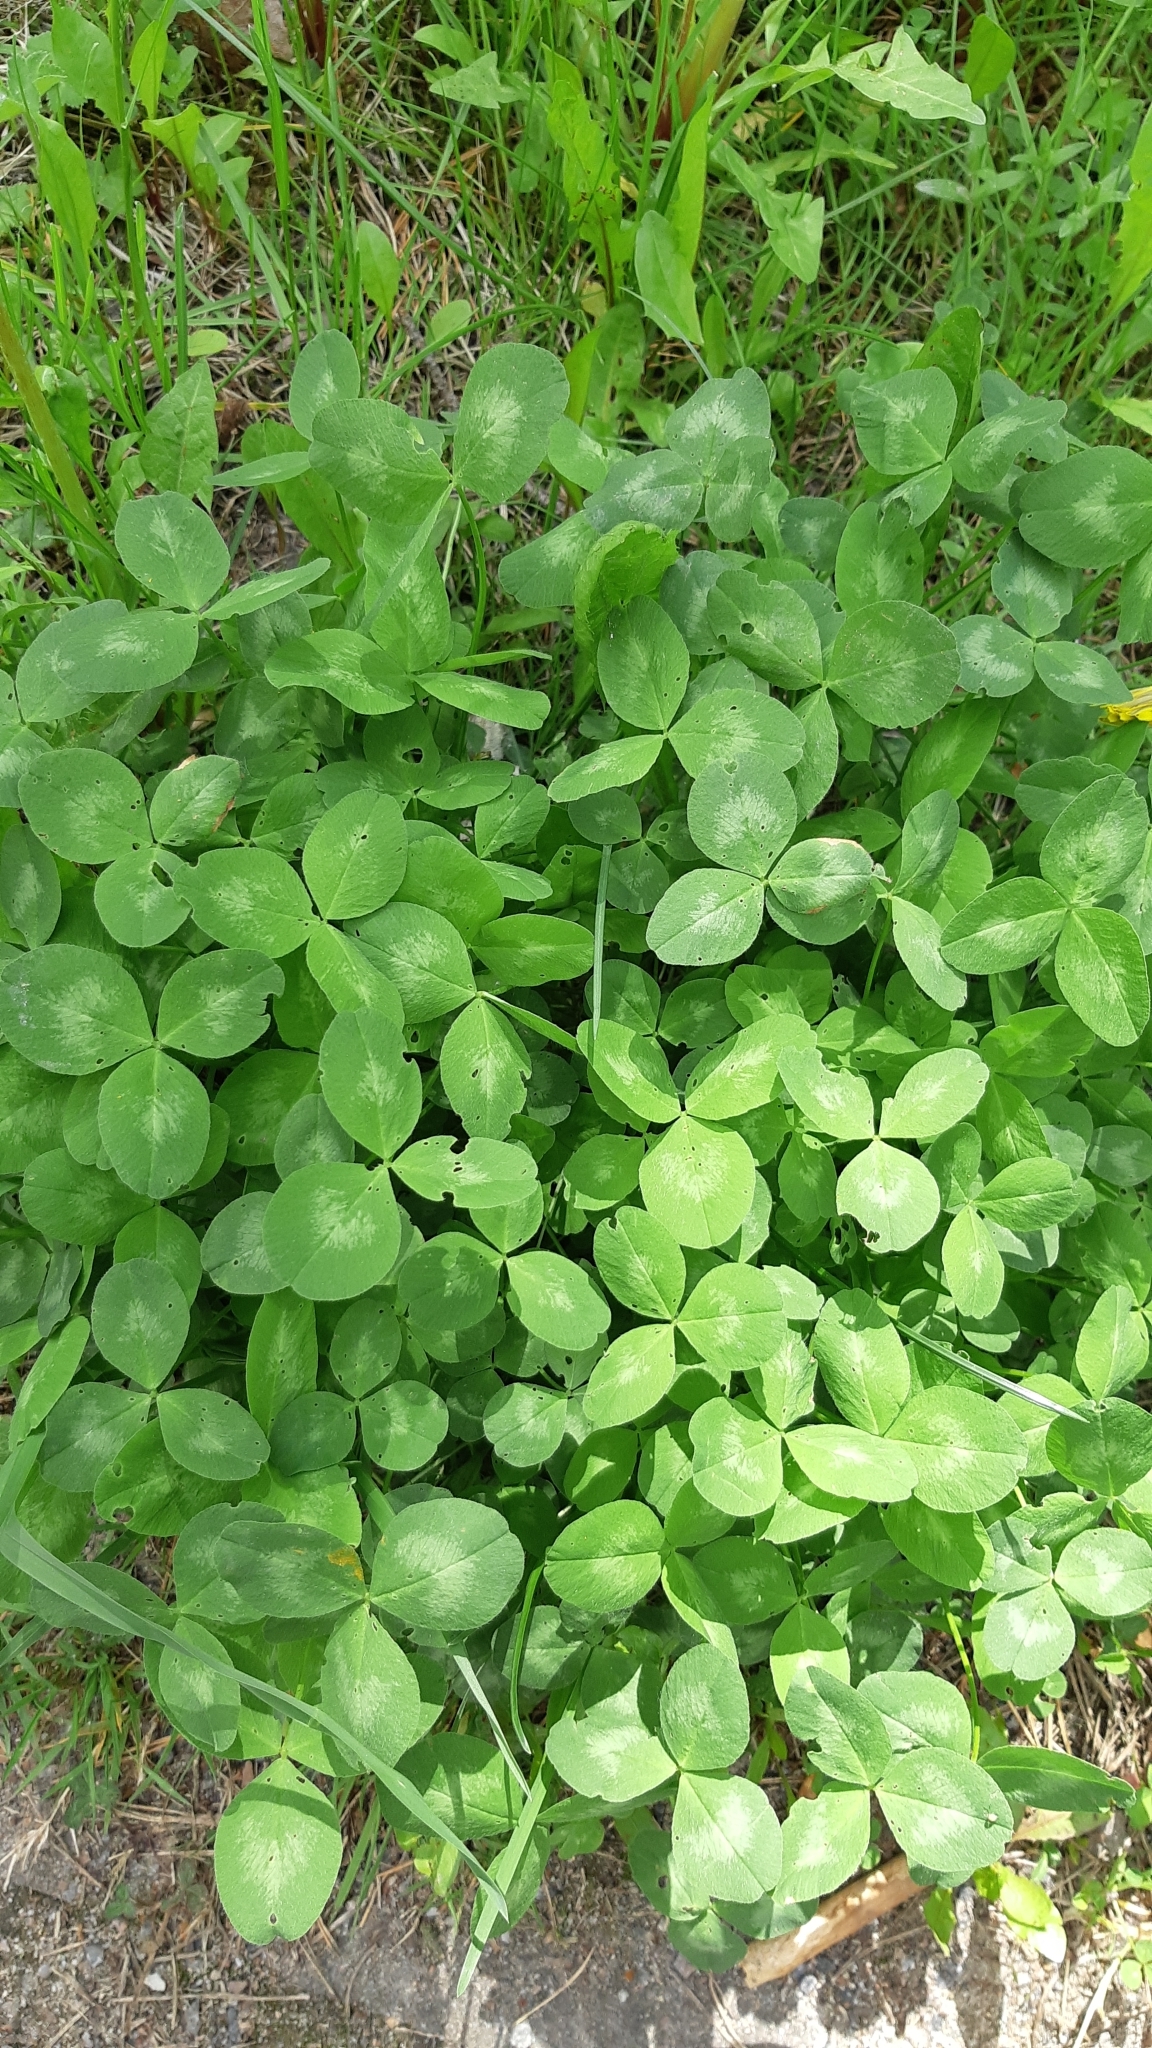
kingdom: Plantae
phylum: Tracheophyta
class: Magnoliopsida
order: Fabales
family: Fabaceae
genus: Trifolium
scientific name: Trifolium pratense
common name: Red clover
